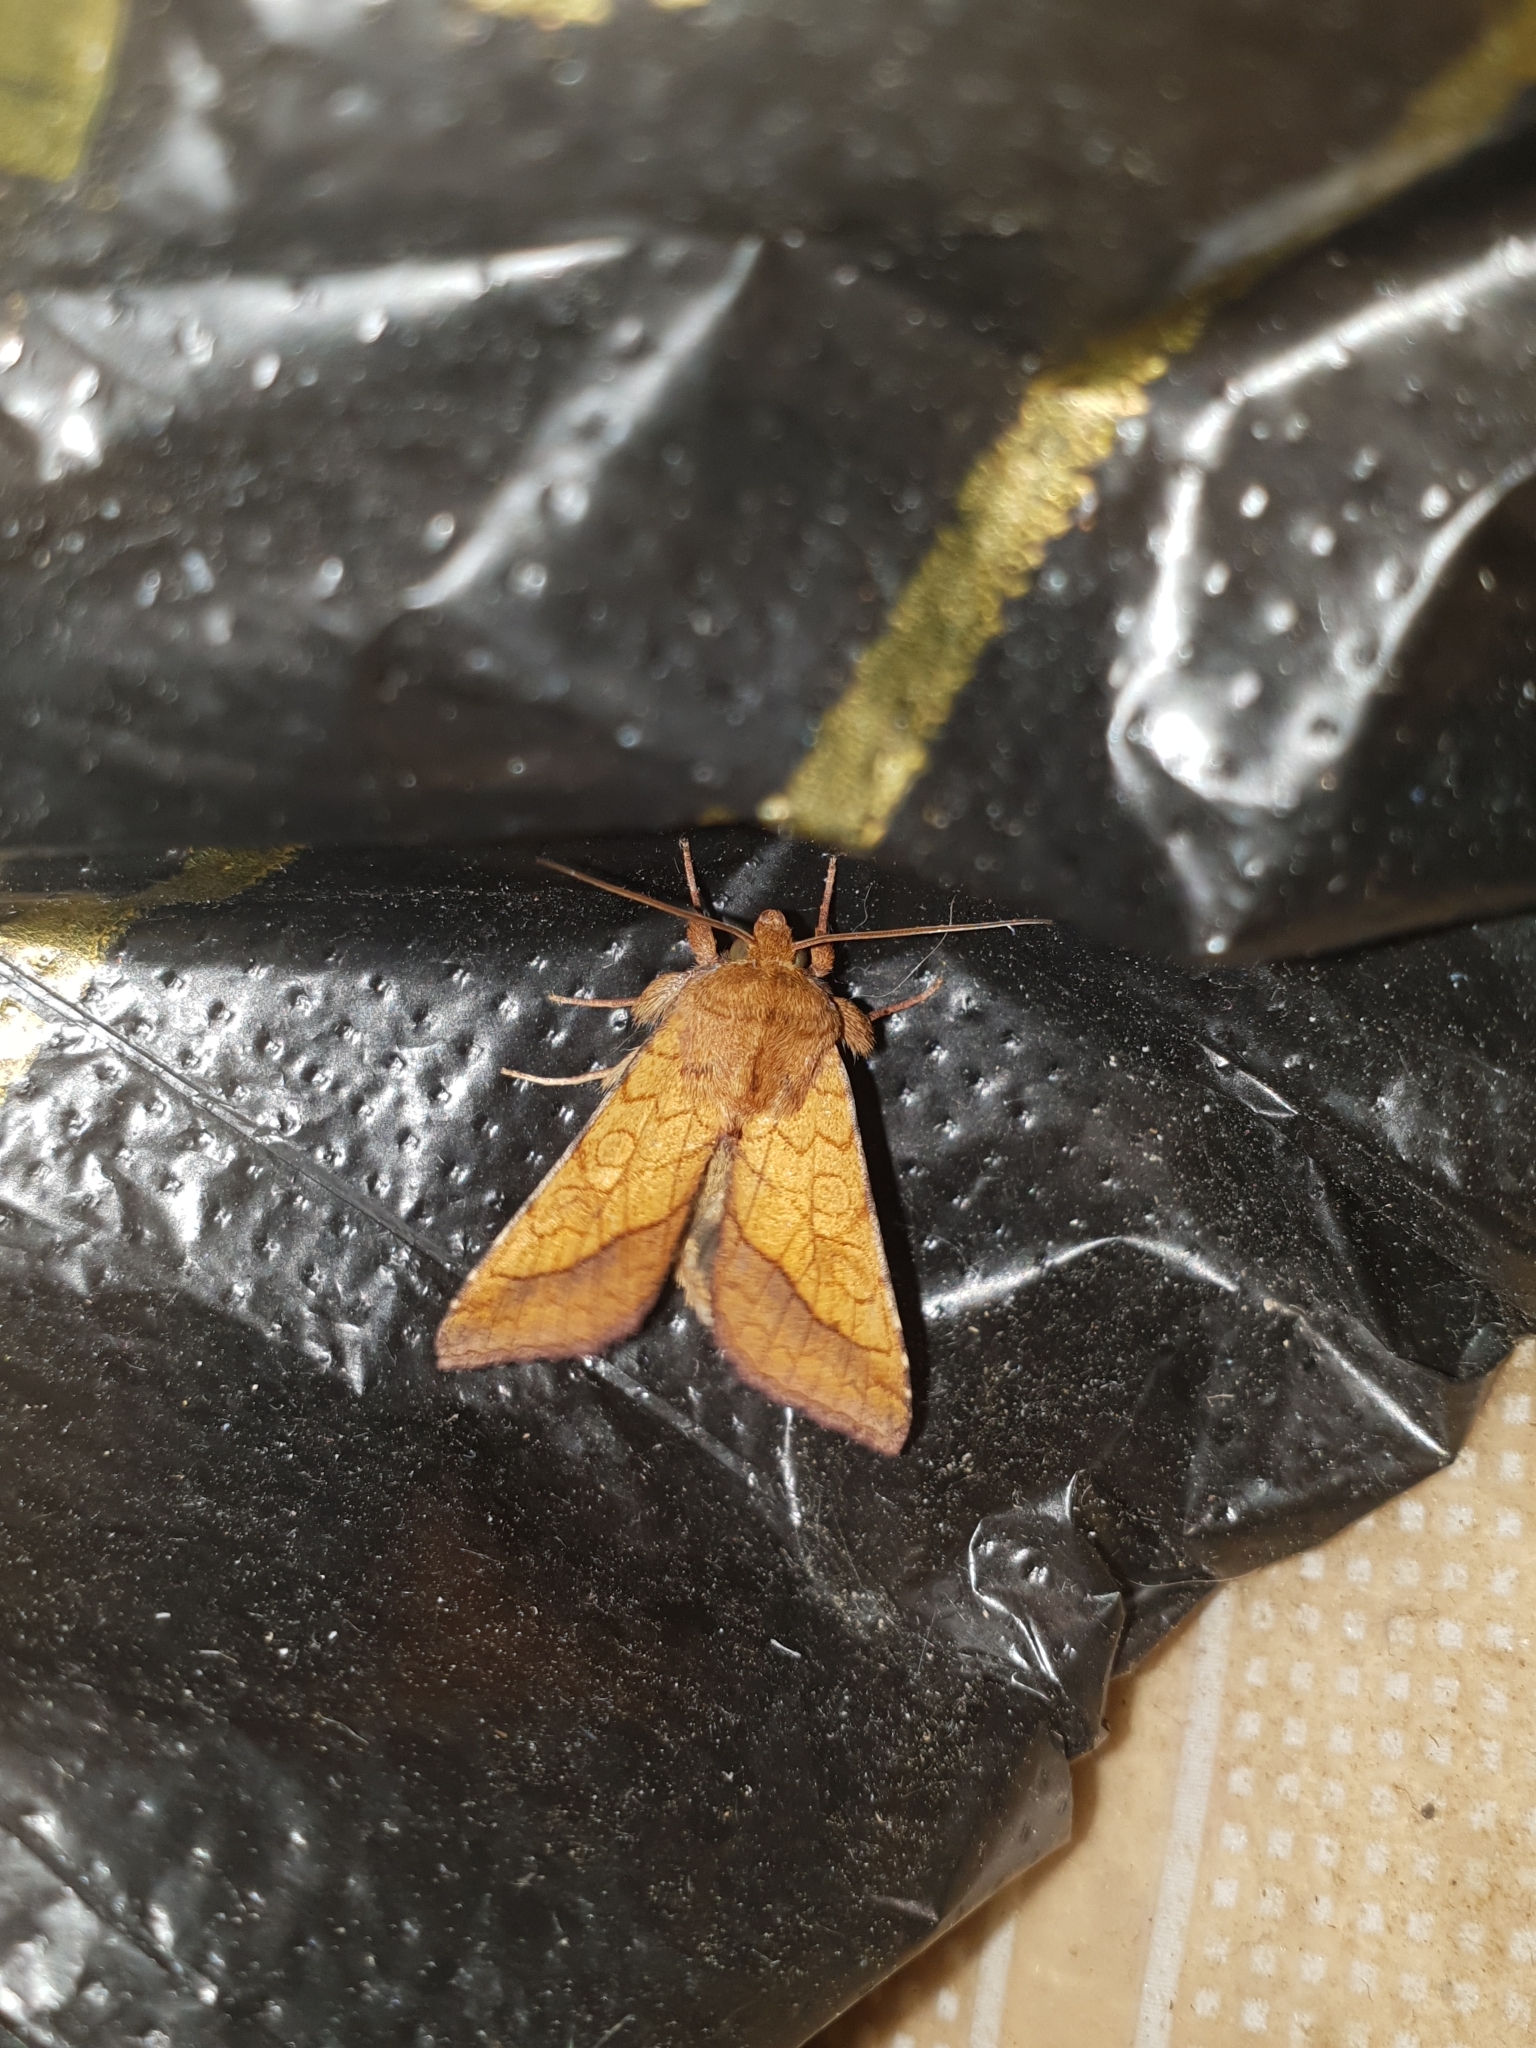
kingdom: Animalia
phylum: Arthropoda
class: Insecta
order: Lepidoptera
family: Noctuidae
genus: Pyrrhia
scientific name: Pyrrhia umbra
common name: Bordered sallow
